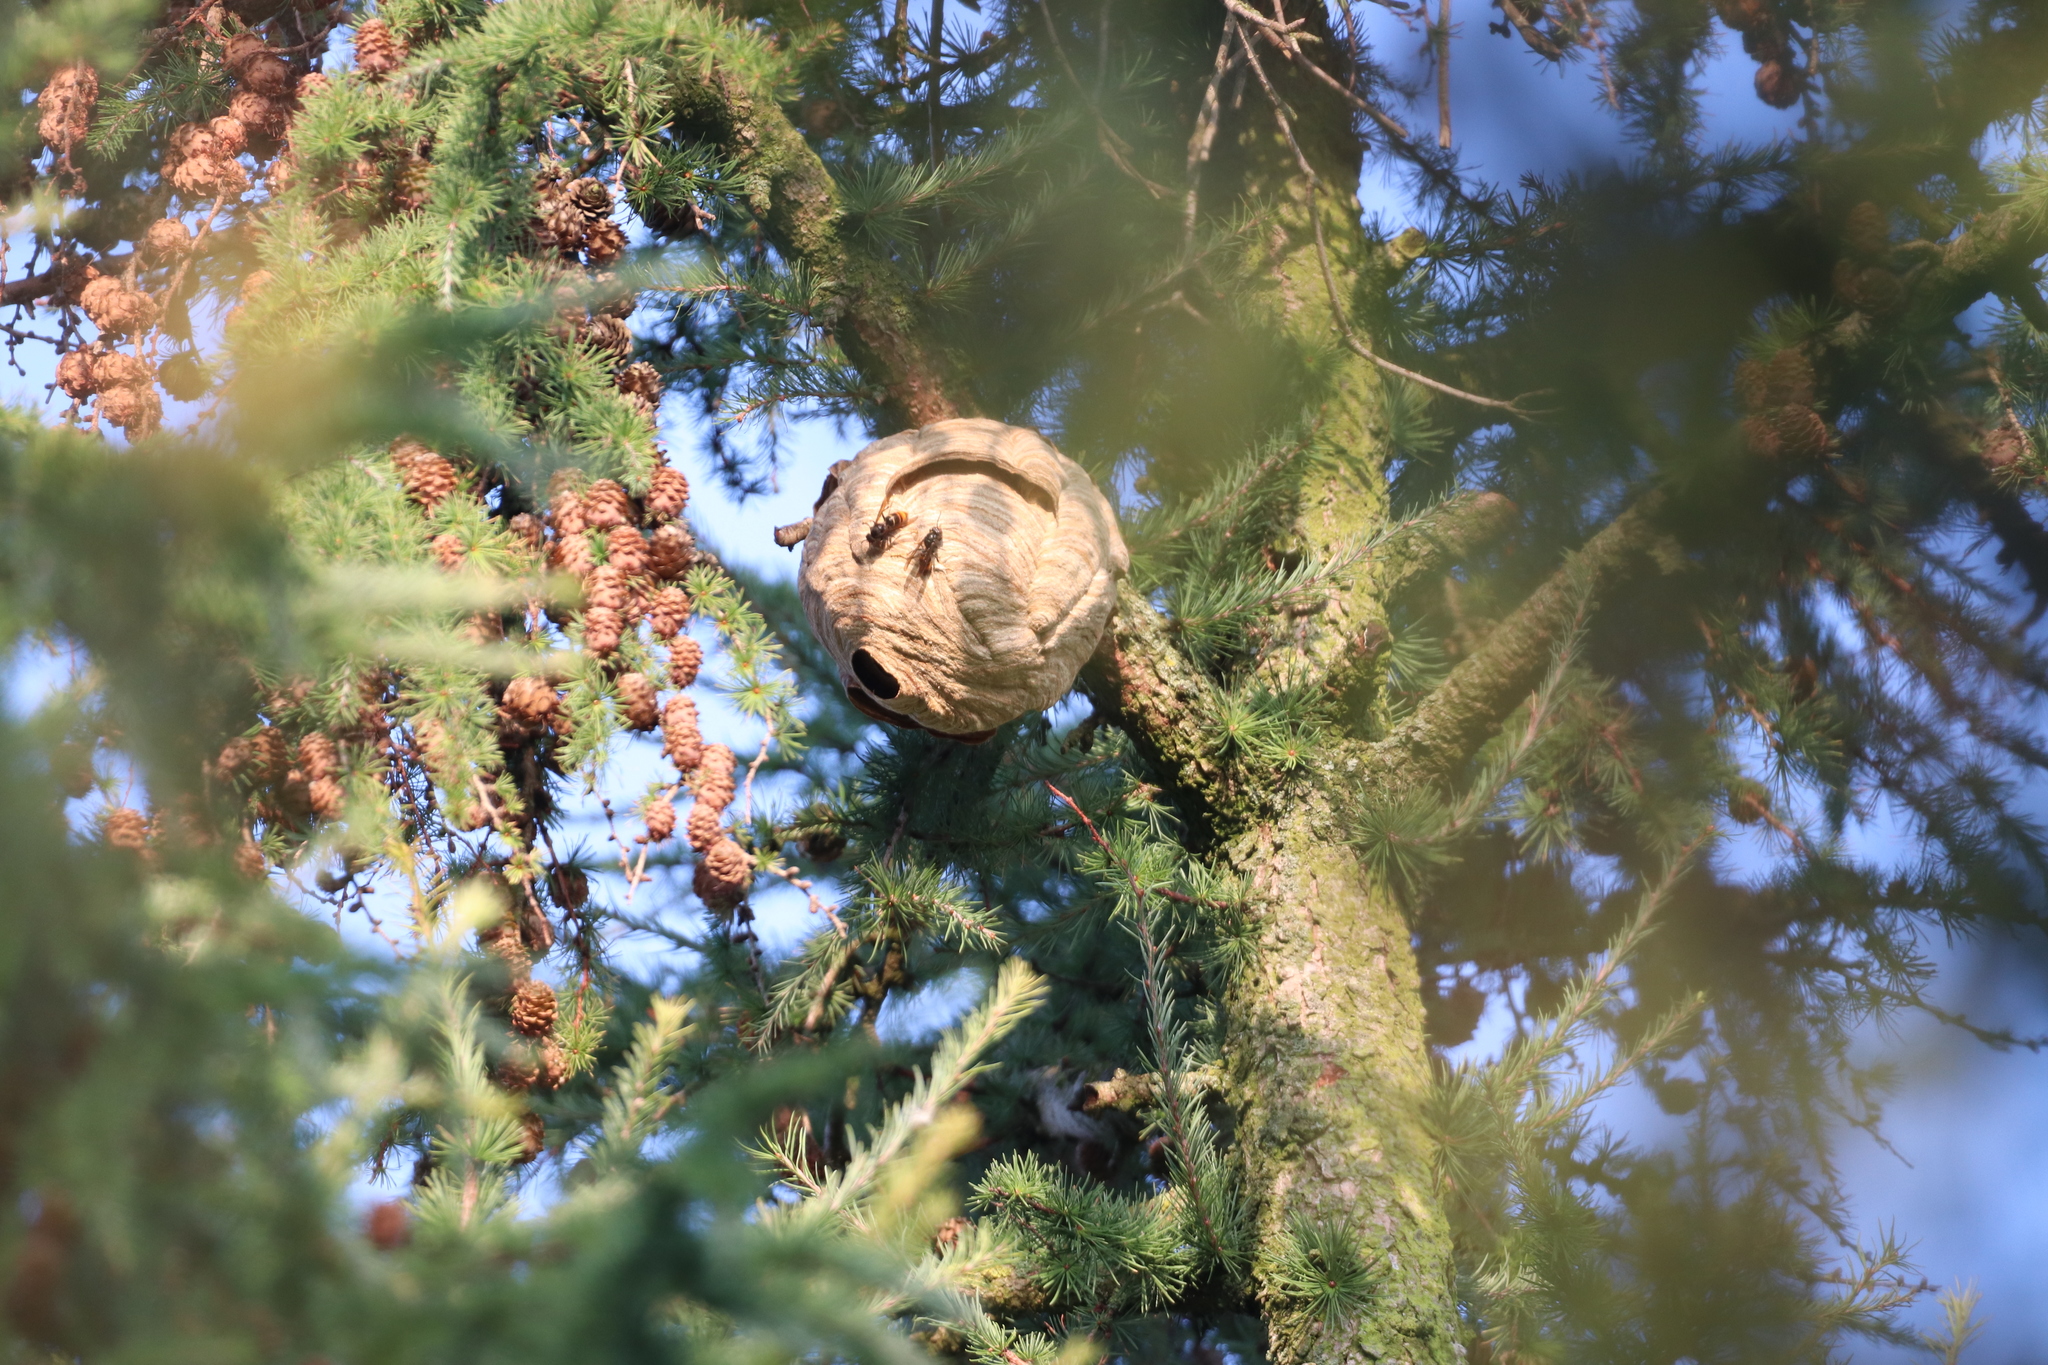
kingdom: Animalia
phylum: Arthropoda
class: Insecta
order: Hymenoptera
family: Vespidae
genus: Vespa
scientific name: Vespa velutina
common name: Asian hornet
